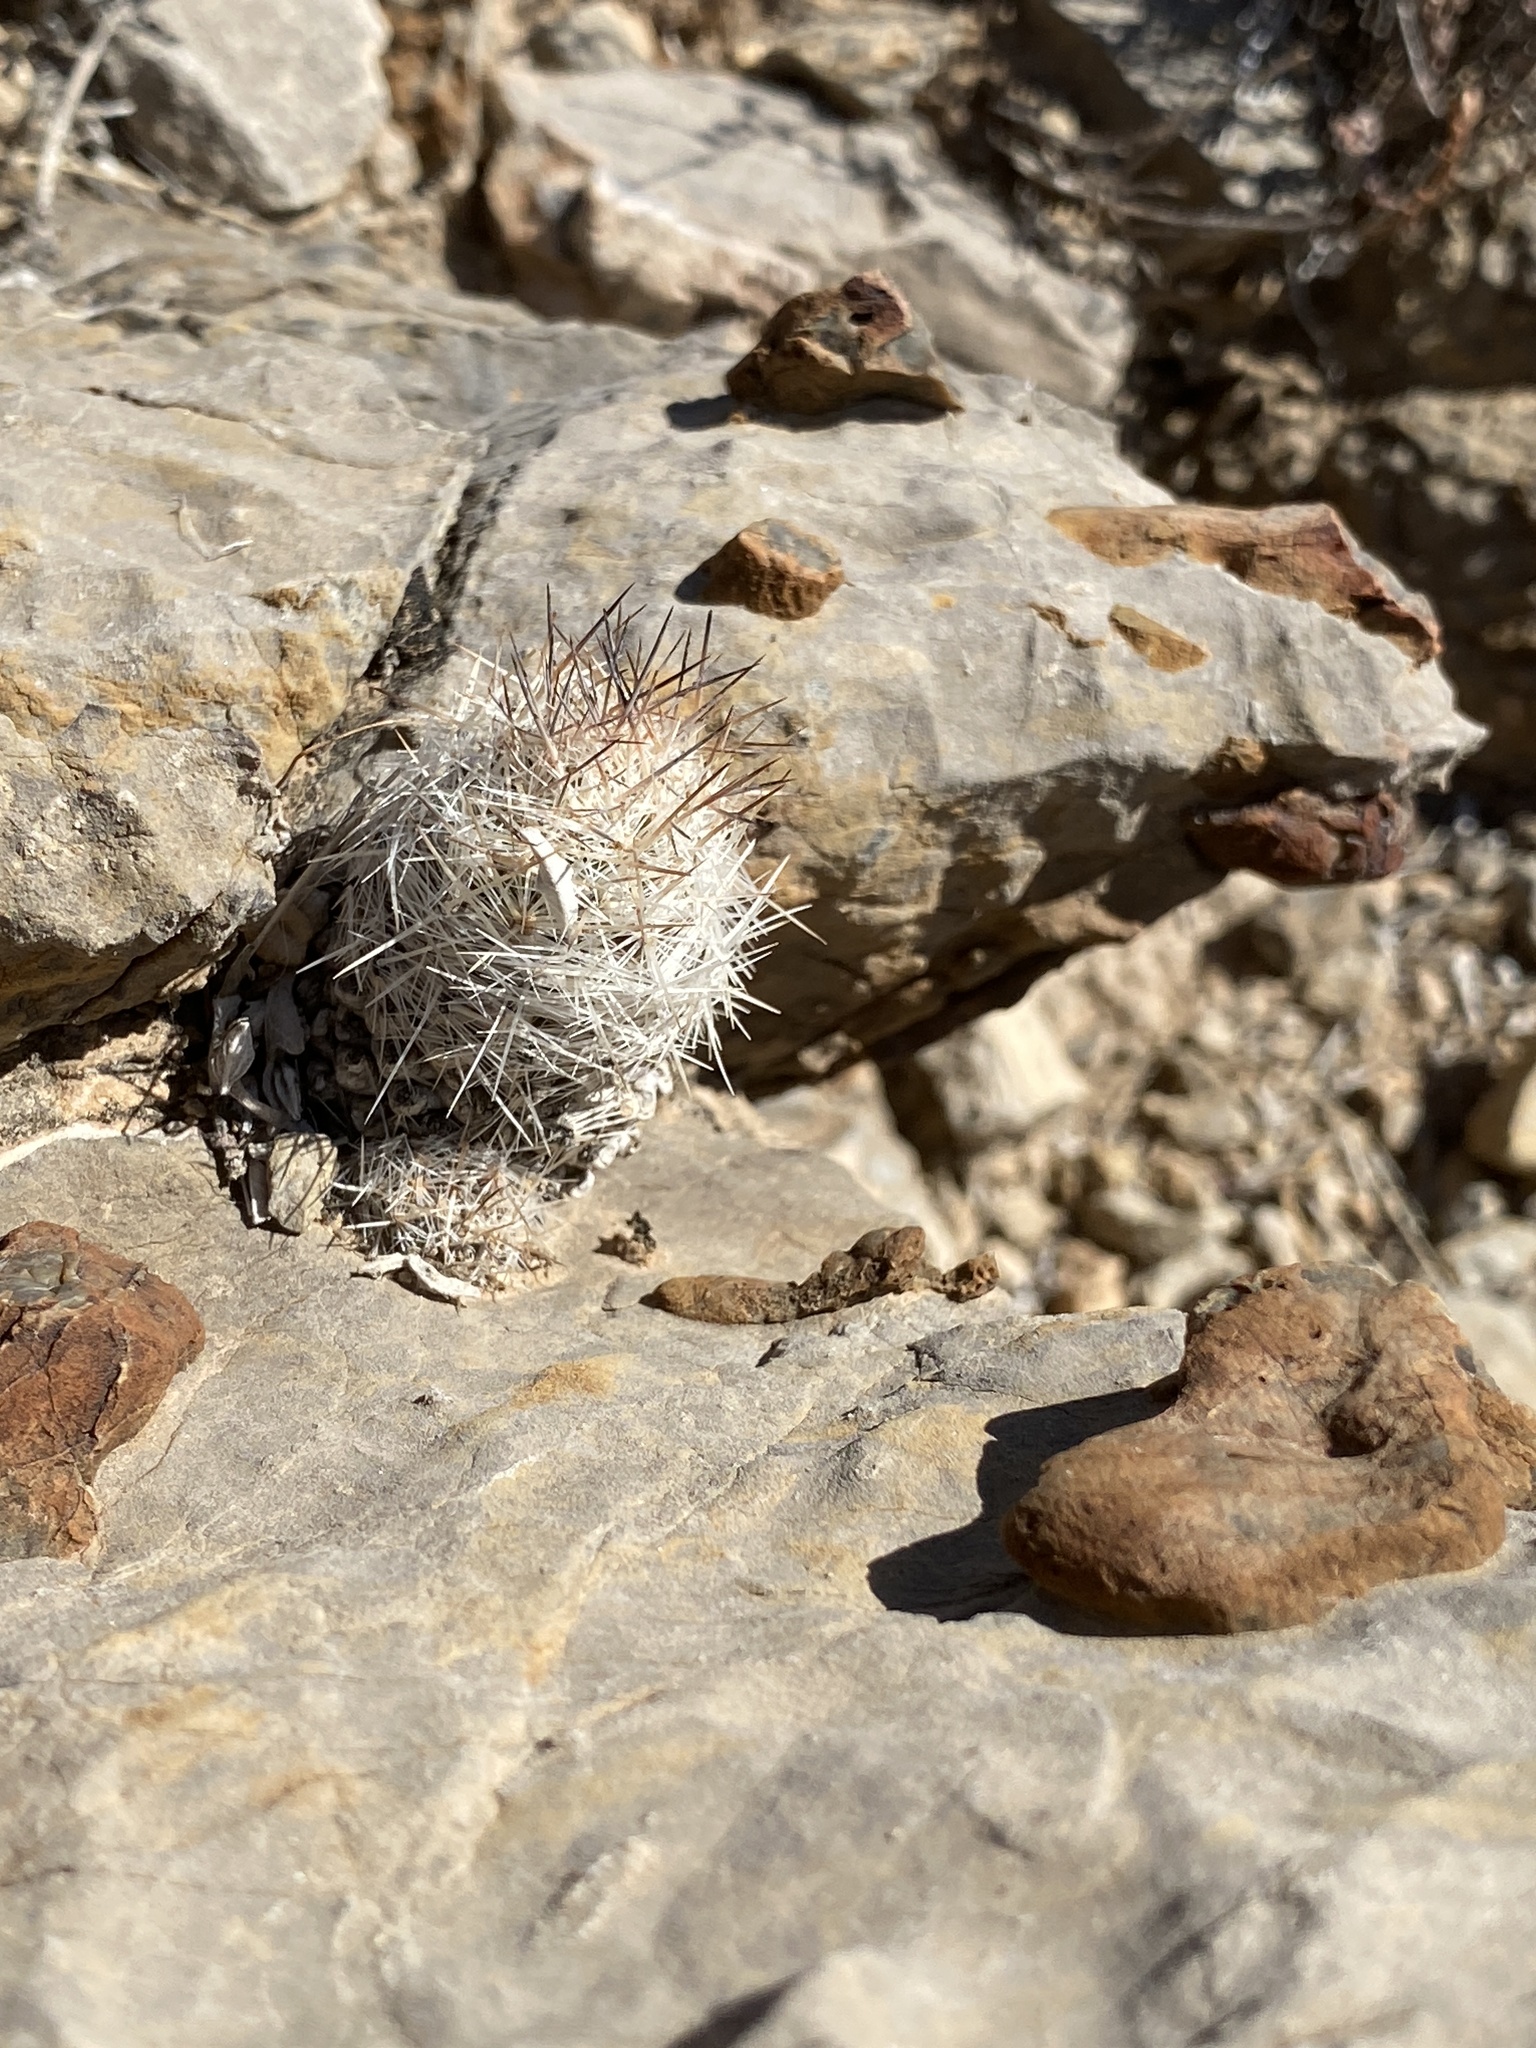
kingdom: Plantae
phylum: Tracheophyta
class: Magnoliopsida
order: Caryophyllales
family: Cactaceae
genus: Pelecyphora
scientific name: Pelecyphora tuberculosa
